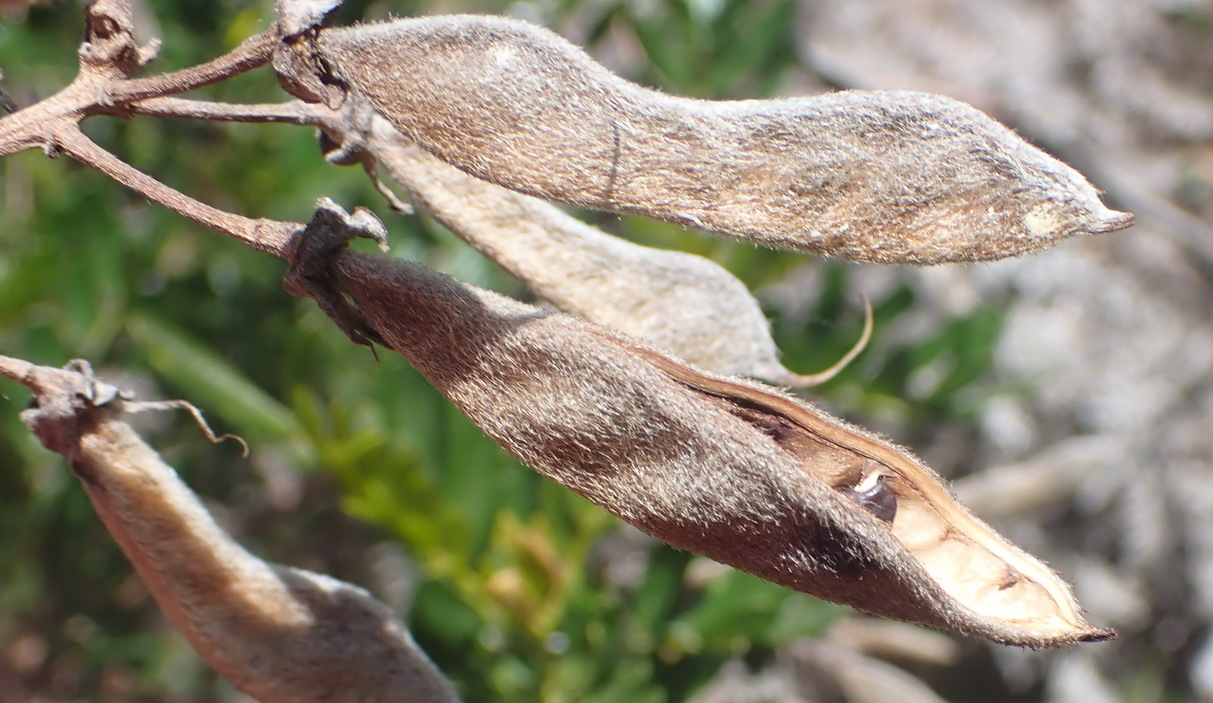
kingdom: Plantae
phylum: Tracheophyta
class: Magnoliopsida
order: Fabales
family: Fabaceae
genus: Virgilia
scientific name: Virgilia divaricata
